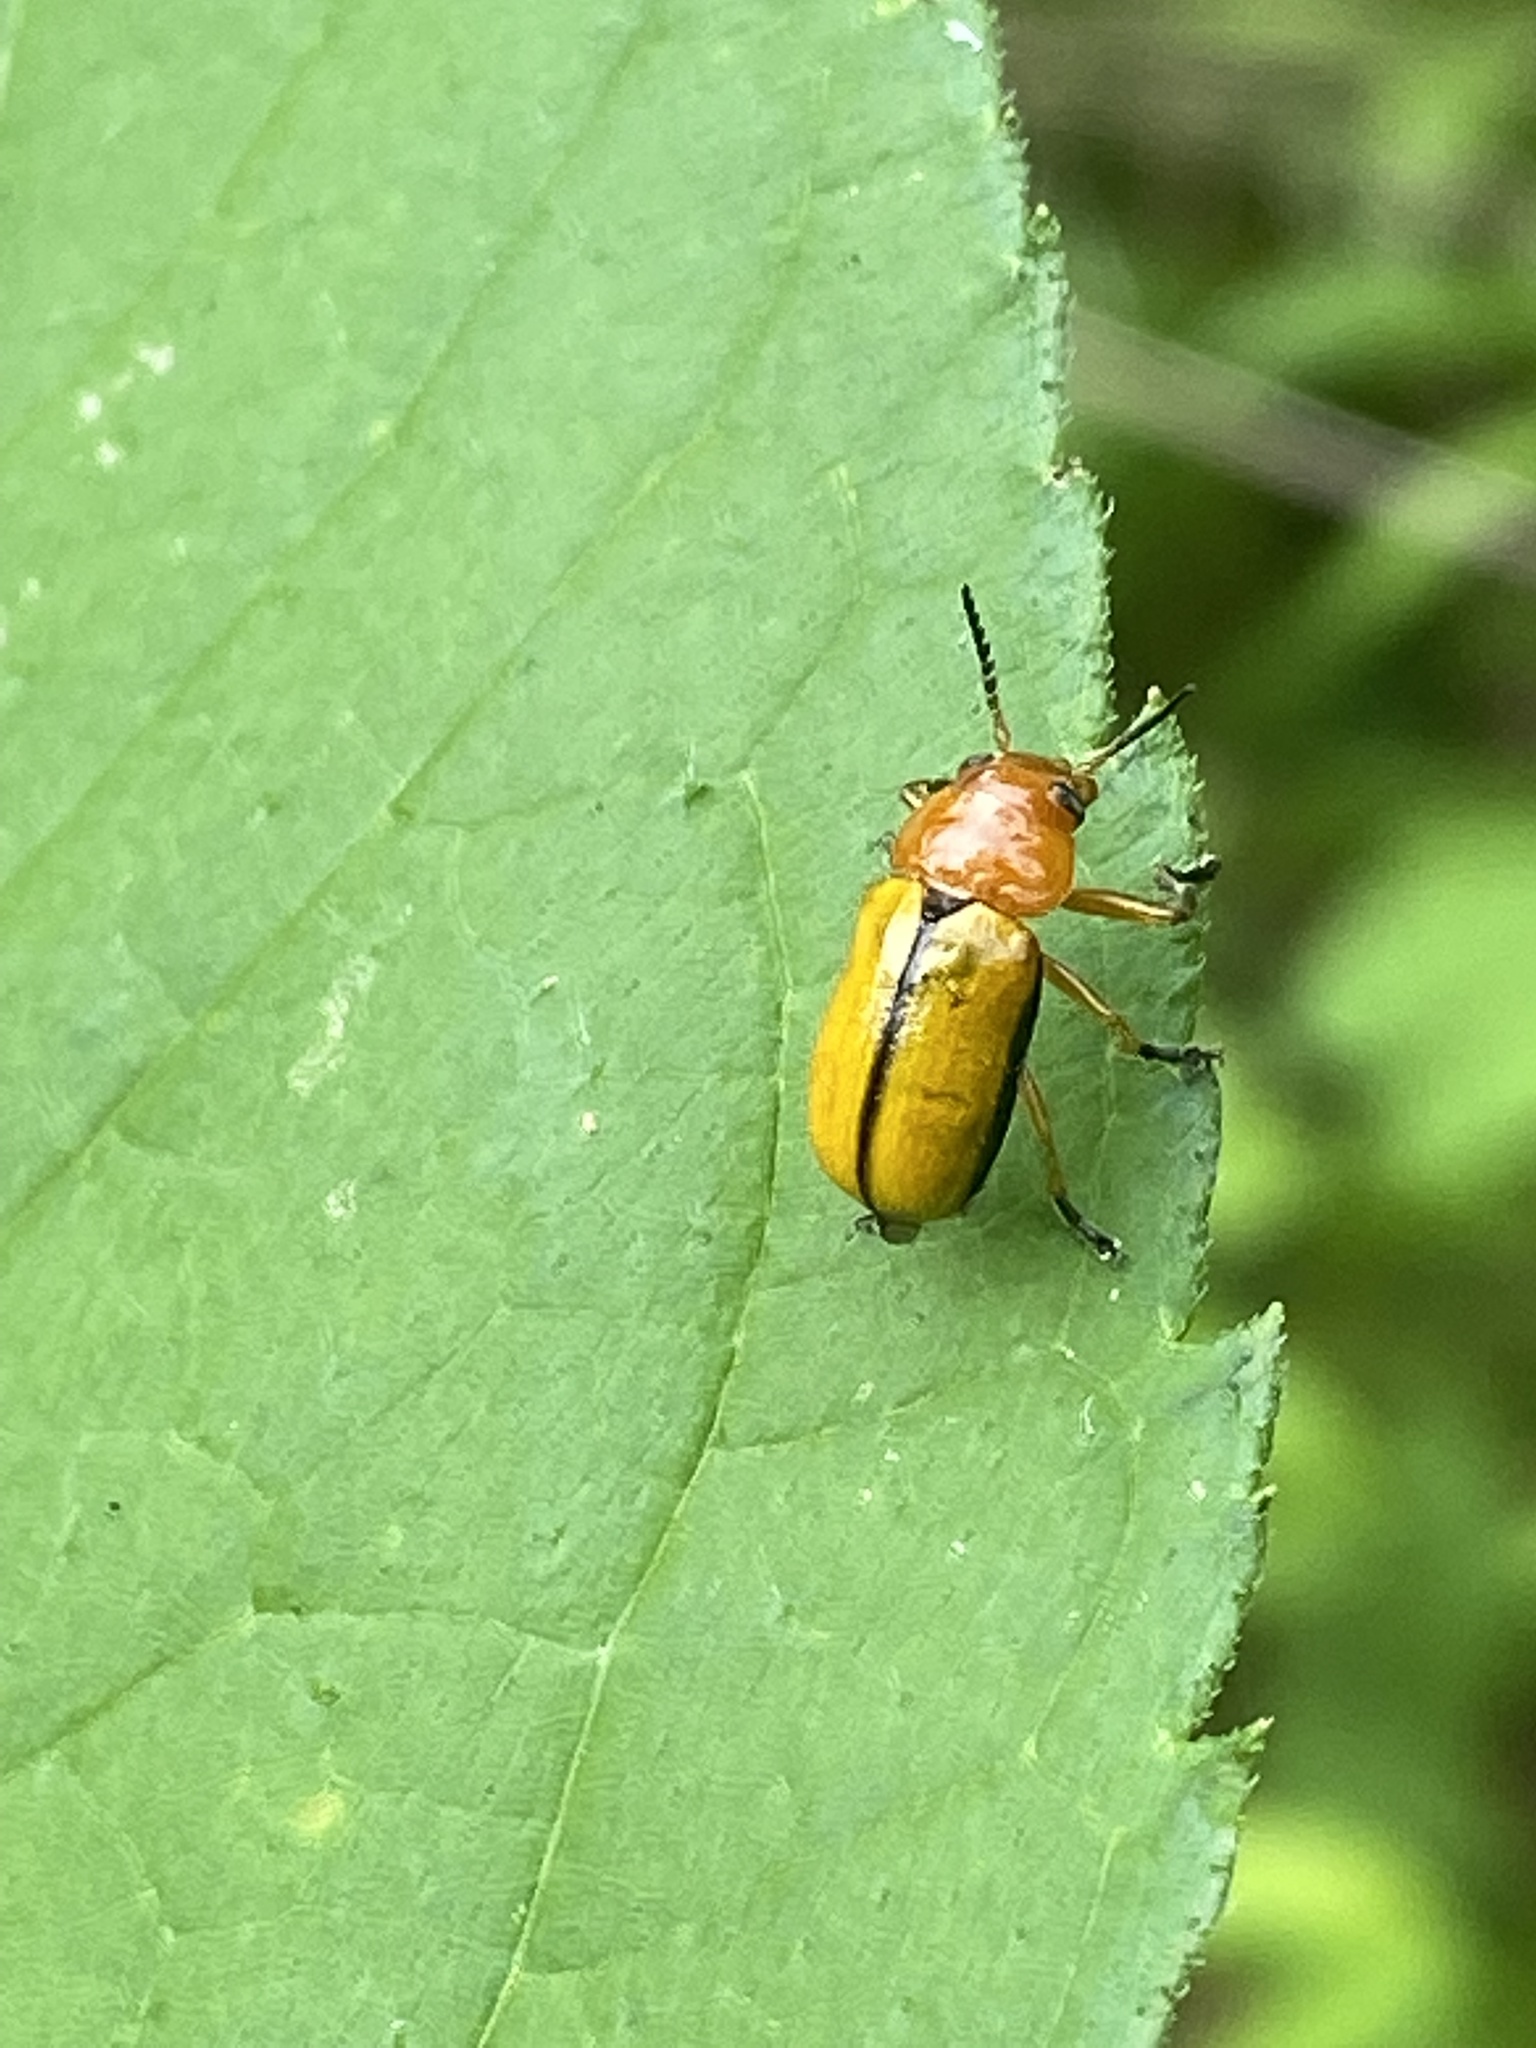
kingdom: Animalia
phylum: Arthropoda
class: Insecta
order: Coleoptera
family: Chrysomelidae
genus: Anomoea
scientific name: Anomoea laticlavia
